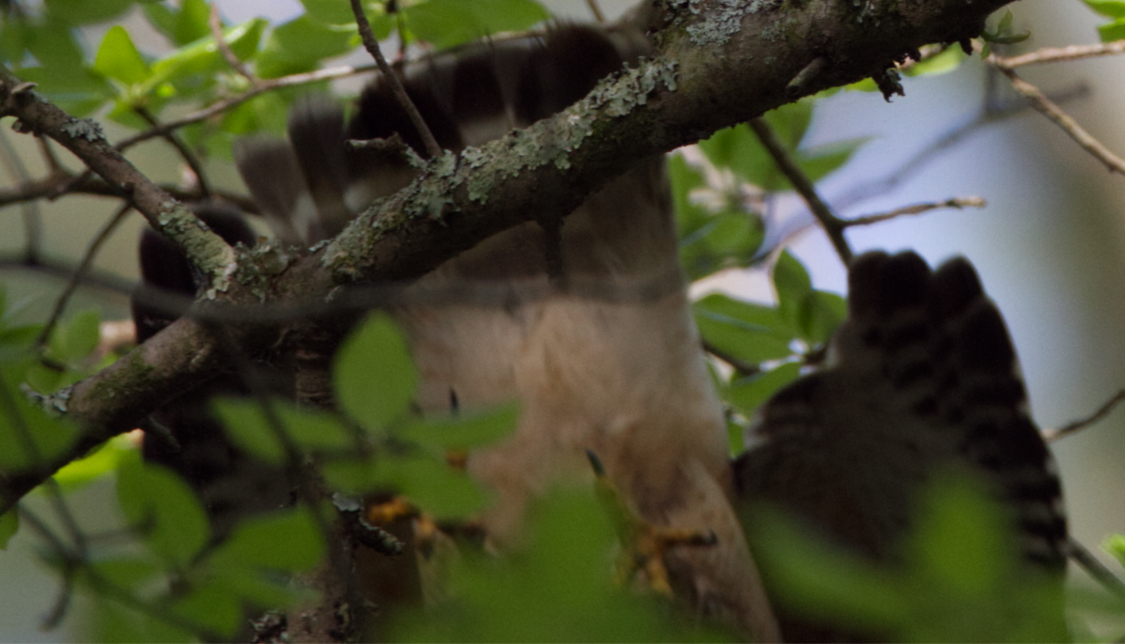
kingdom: Animalia
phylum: Chordata
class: Aves
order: Accipitriformes
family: Accipitridae
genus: Buteo
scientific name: Buteo lineatus
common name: Red-shouldered hawk
